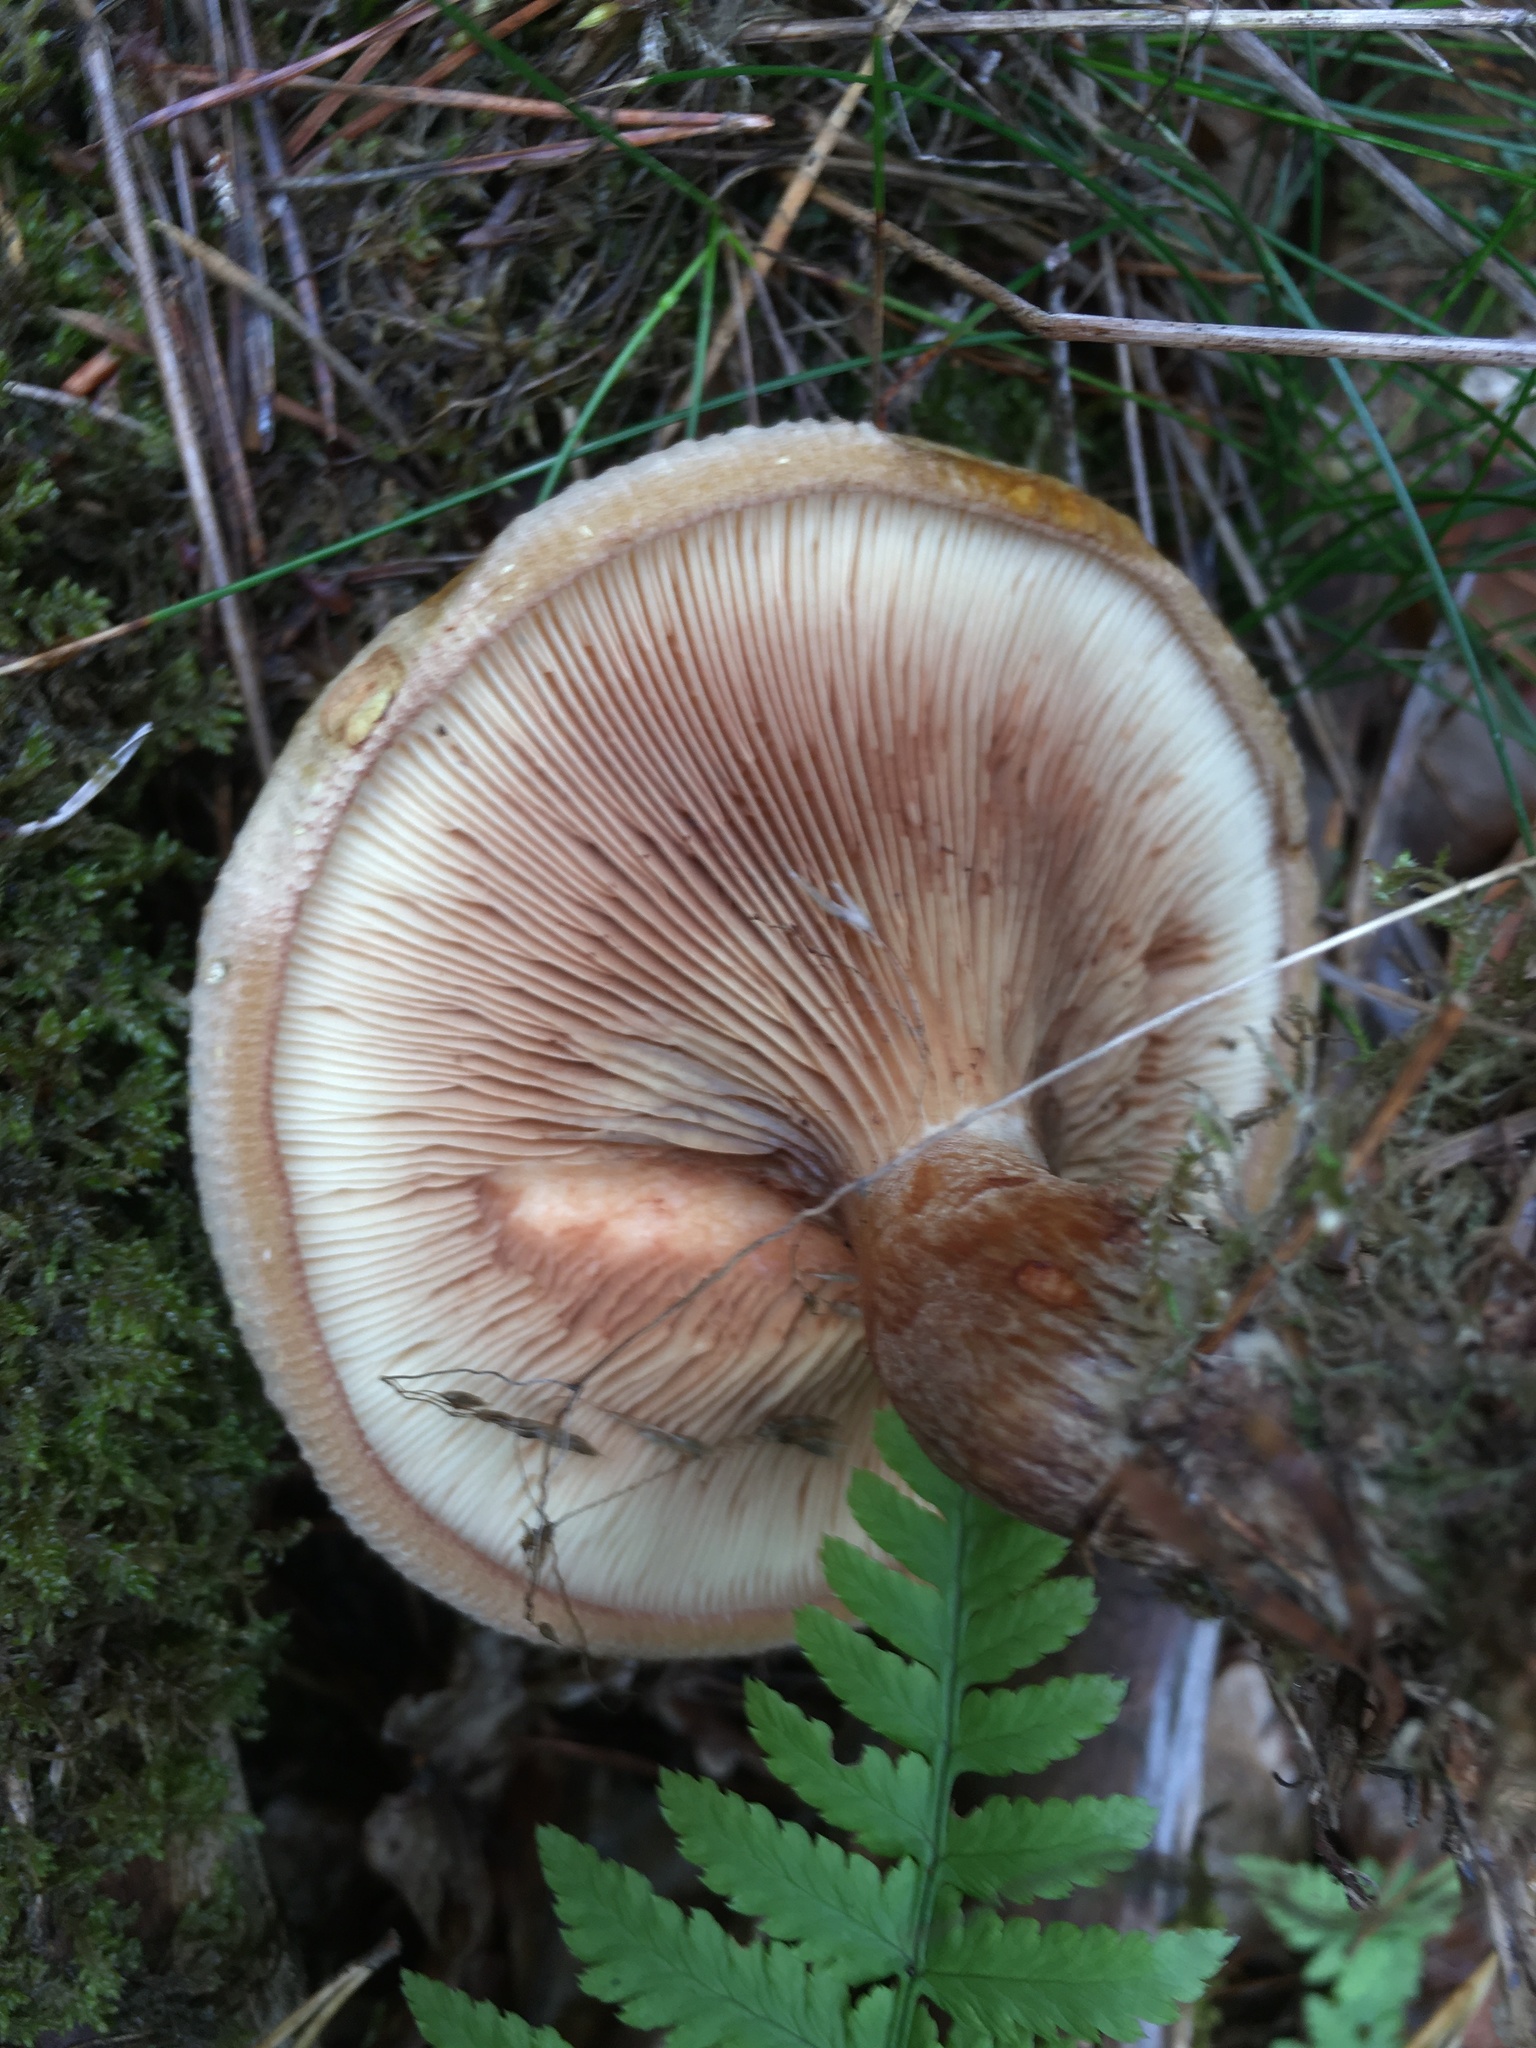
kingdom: Fungi
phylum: Basidiomycota
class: Agaricomycetes
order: Boletales
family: Paxillaceae
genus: Paxillus
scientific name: Paxillus involutus
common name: Brown roll rim
